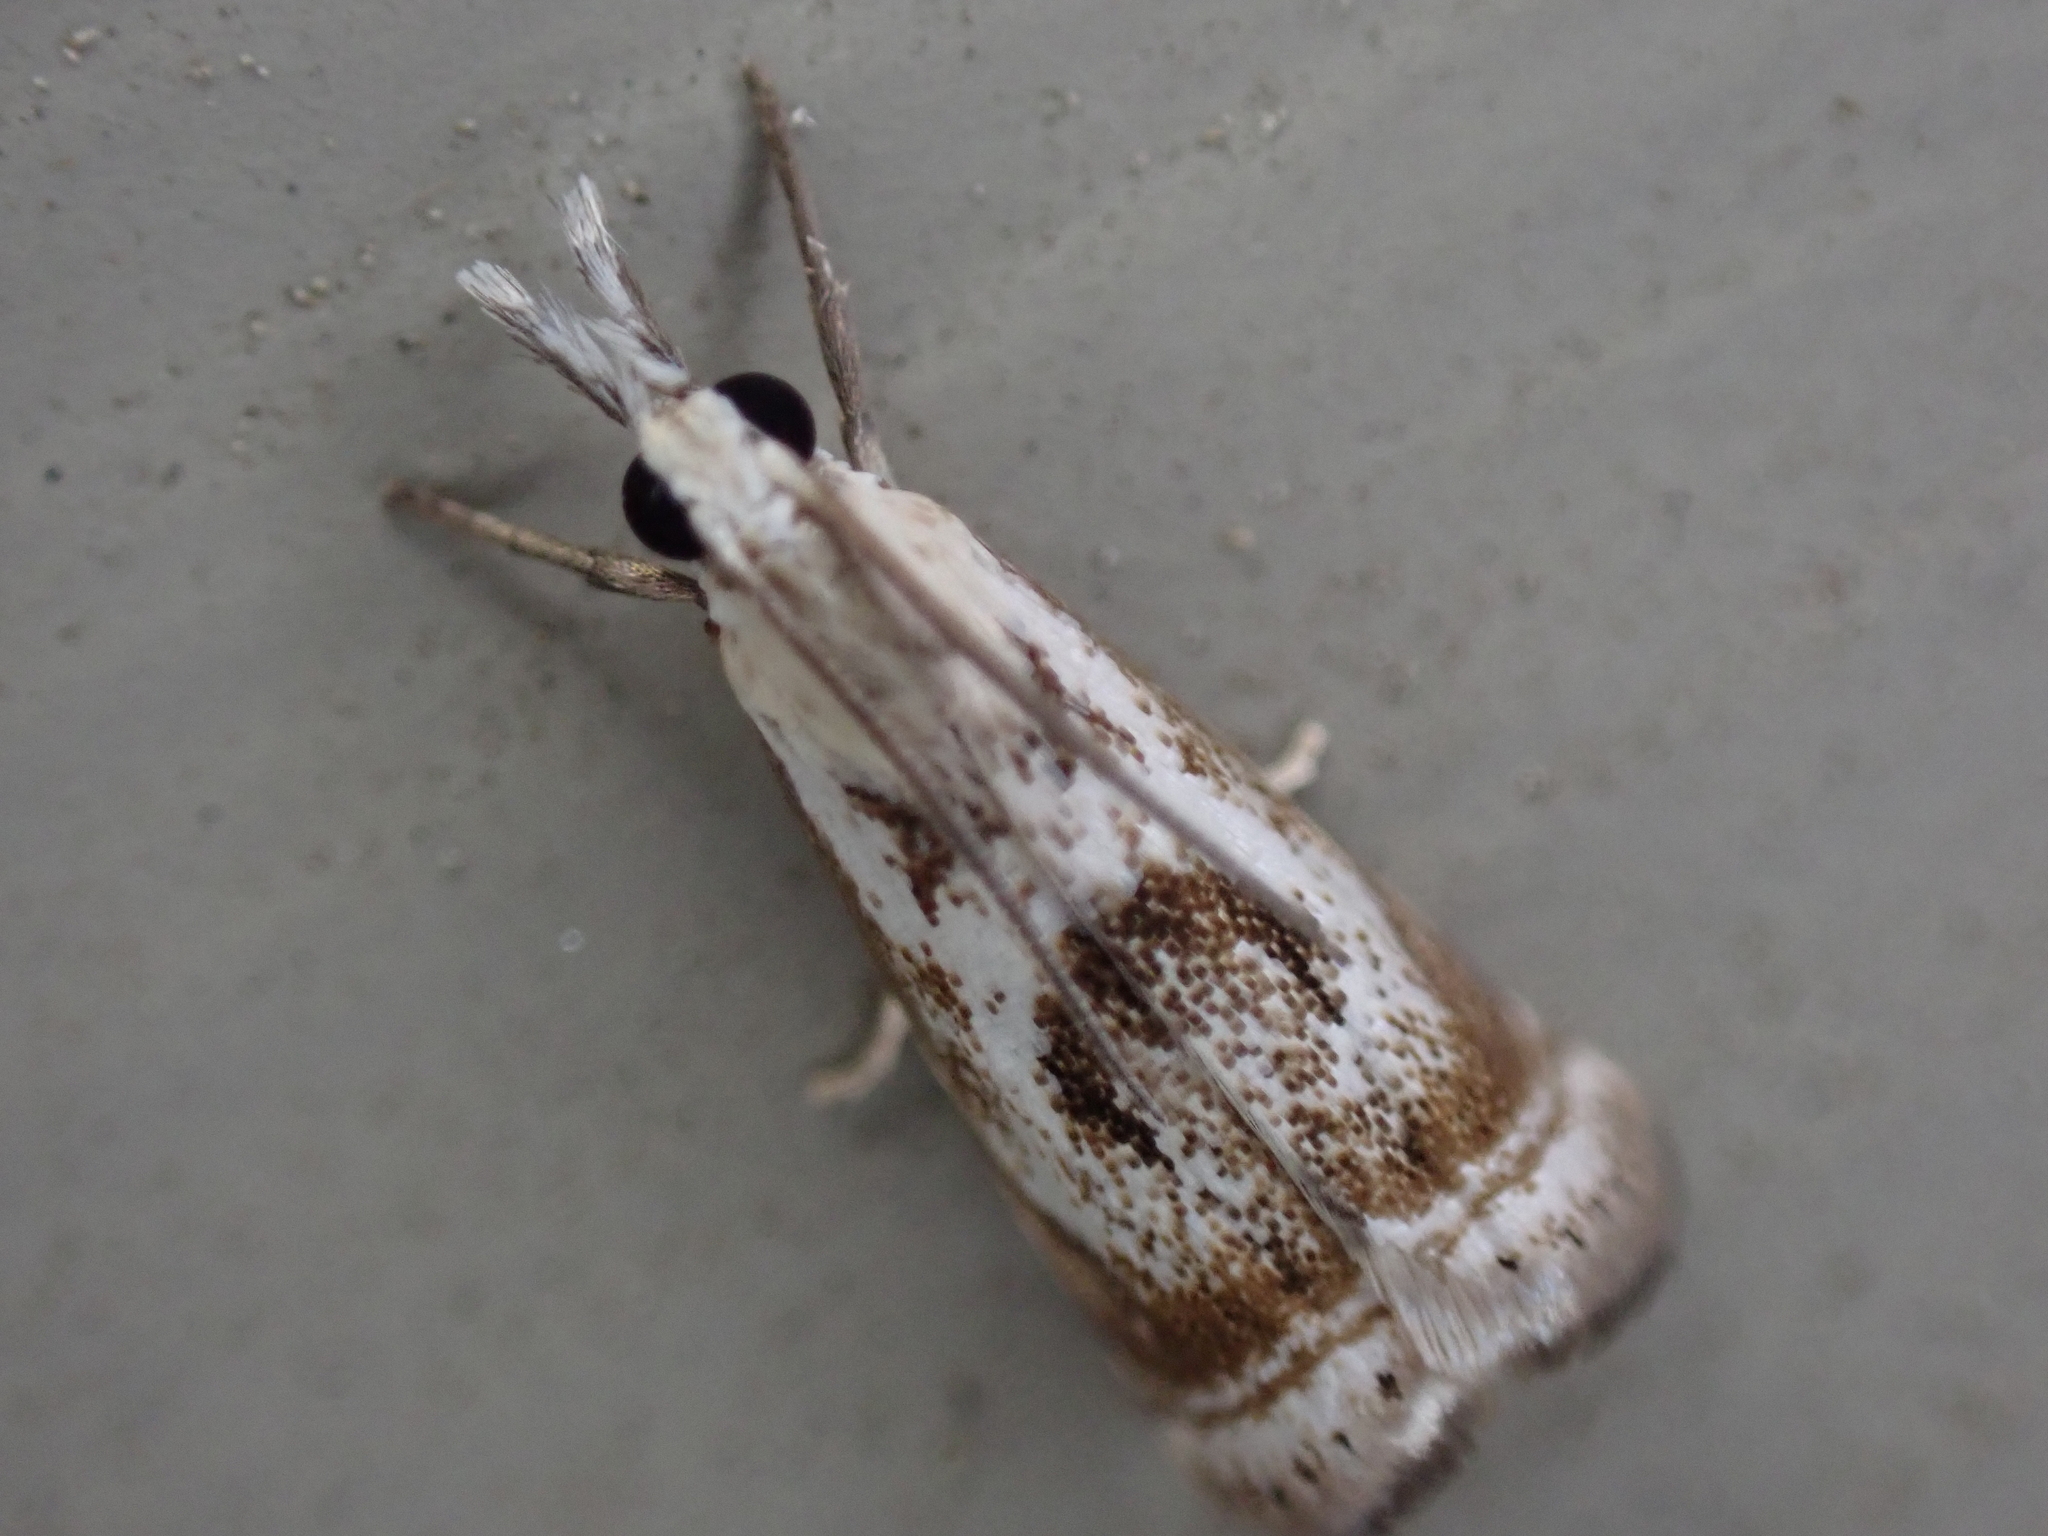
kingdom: Animalia
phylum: Arthropoda
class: Insecta
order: Lepidoptera
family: Crambidae
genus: Microcrambus
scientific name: Microcrambus elegans
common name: Elegant grass-veneer
